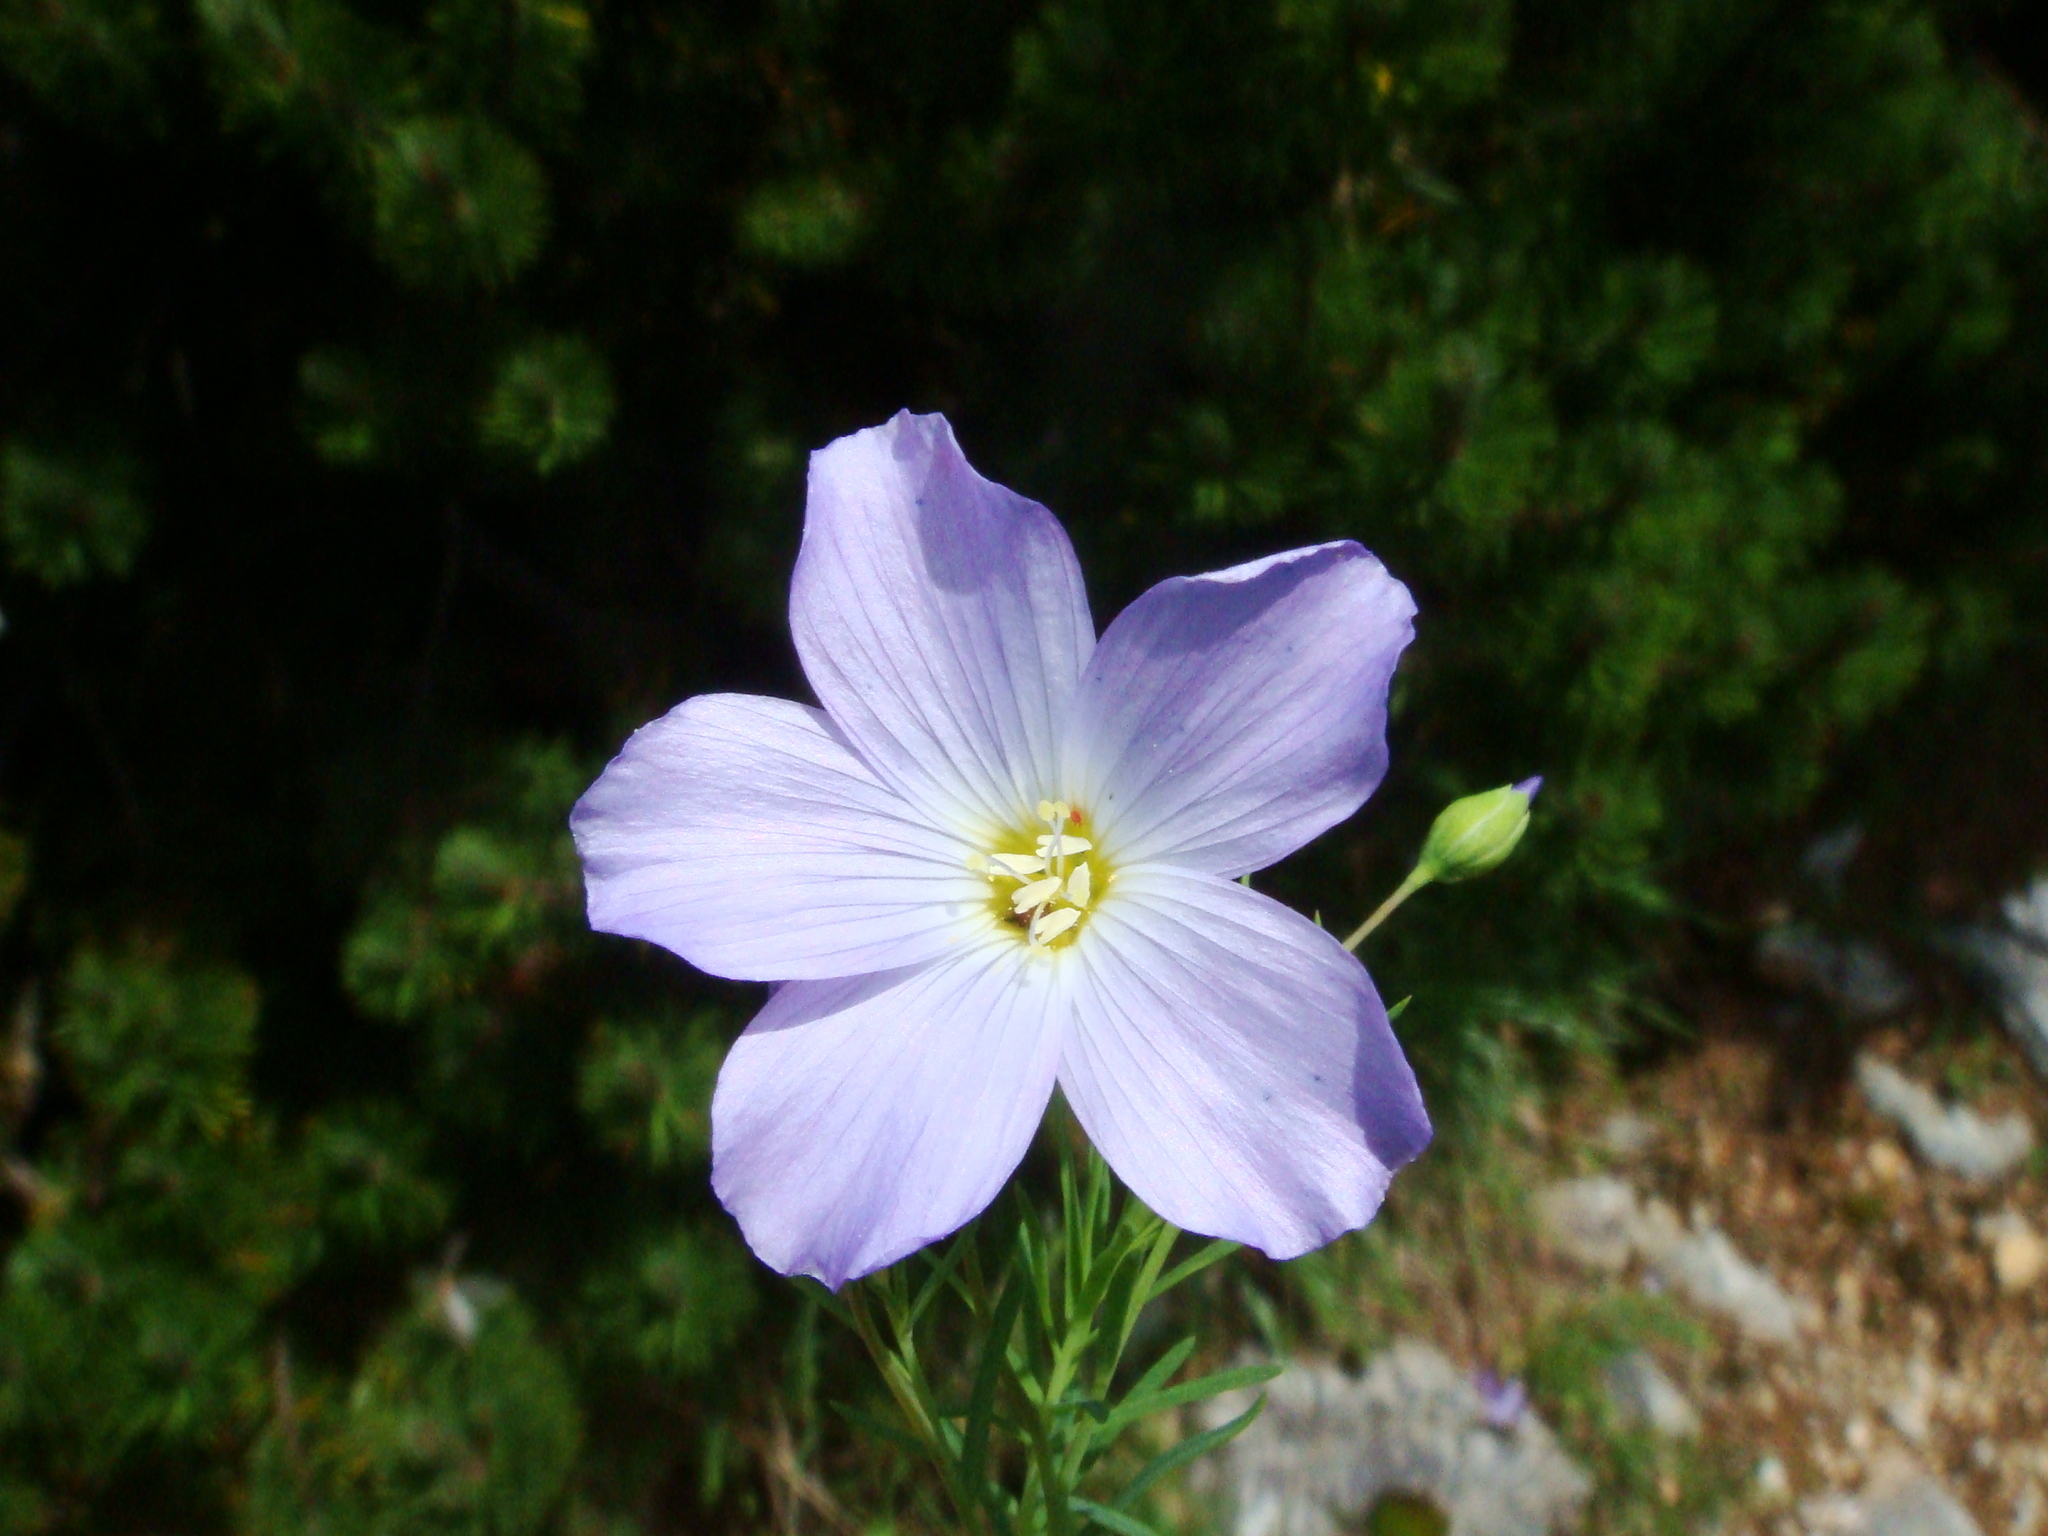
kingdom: Plantae
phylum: Tracheophyta
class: Magnoliopsida
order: Malpighiales
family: Linaceae
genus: Linum
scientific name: Linum alpinum
